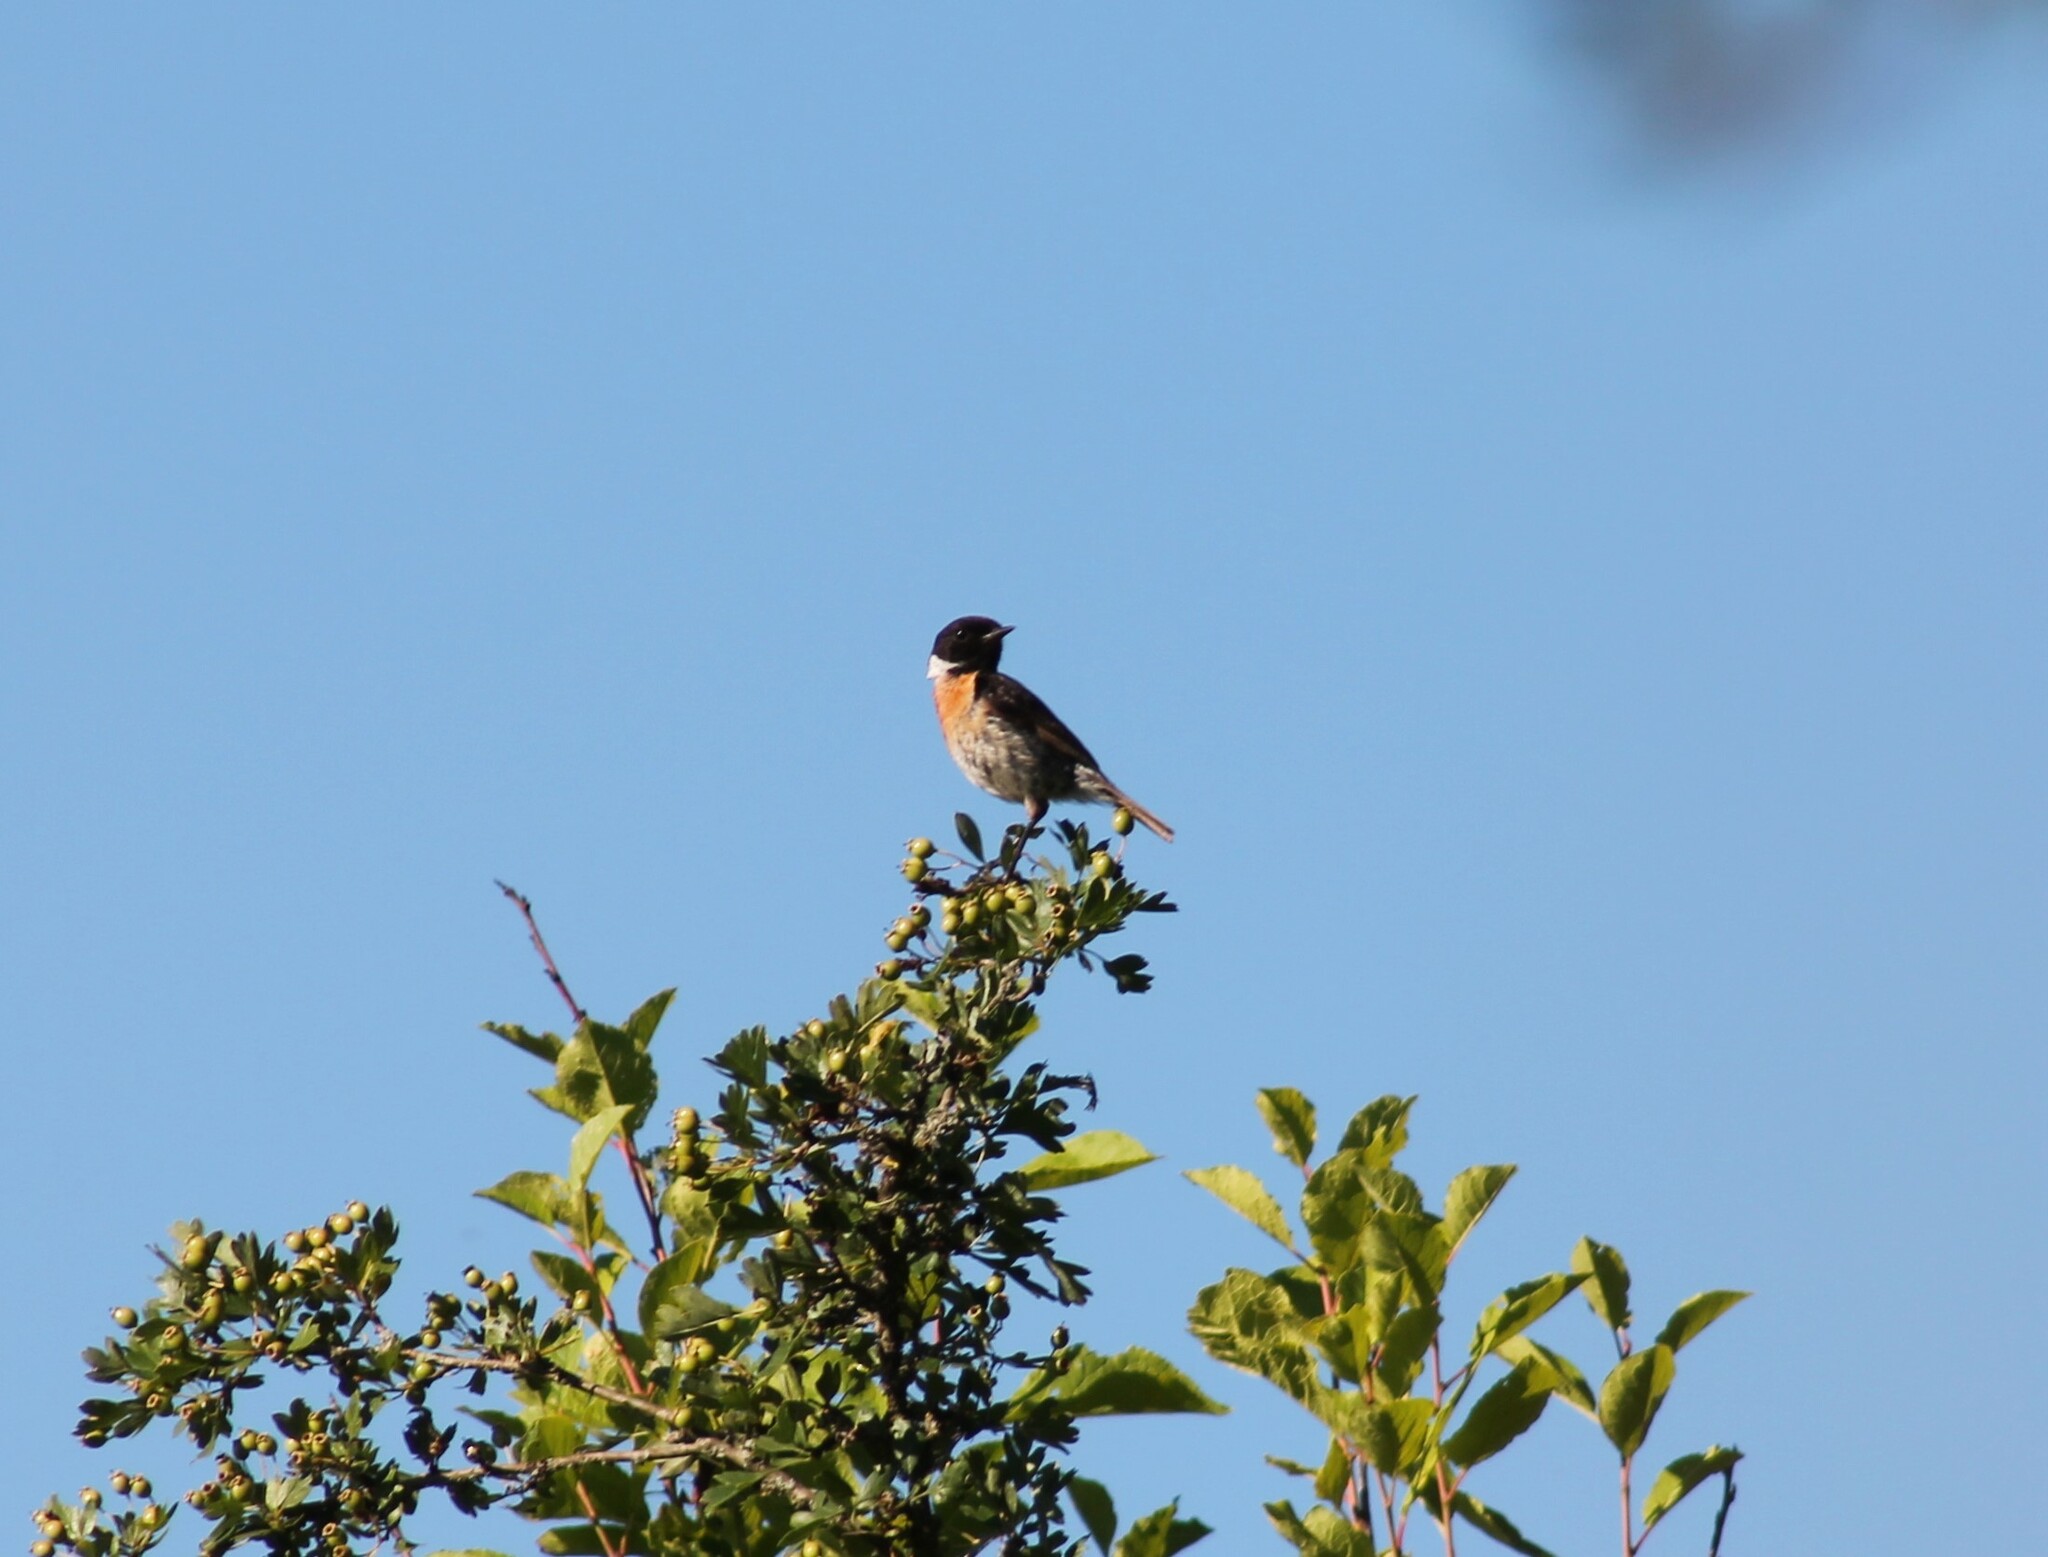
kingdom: Animalia
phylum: Chordata
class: Aves
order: Passeriformes
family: Muscicapidae
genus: Saxicola
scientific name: Saxicola rubicola
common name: European stonechat
